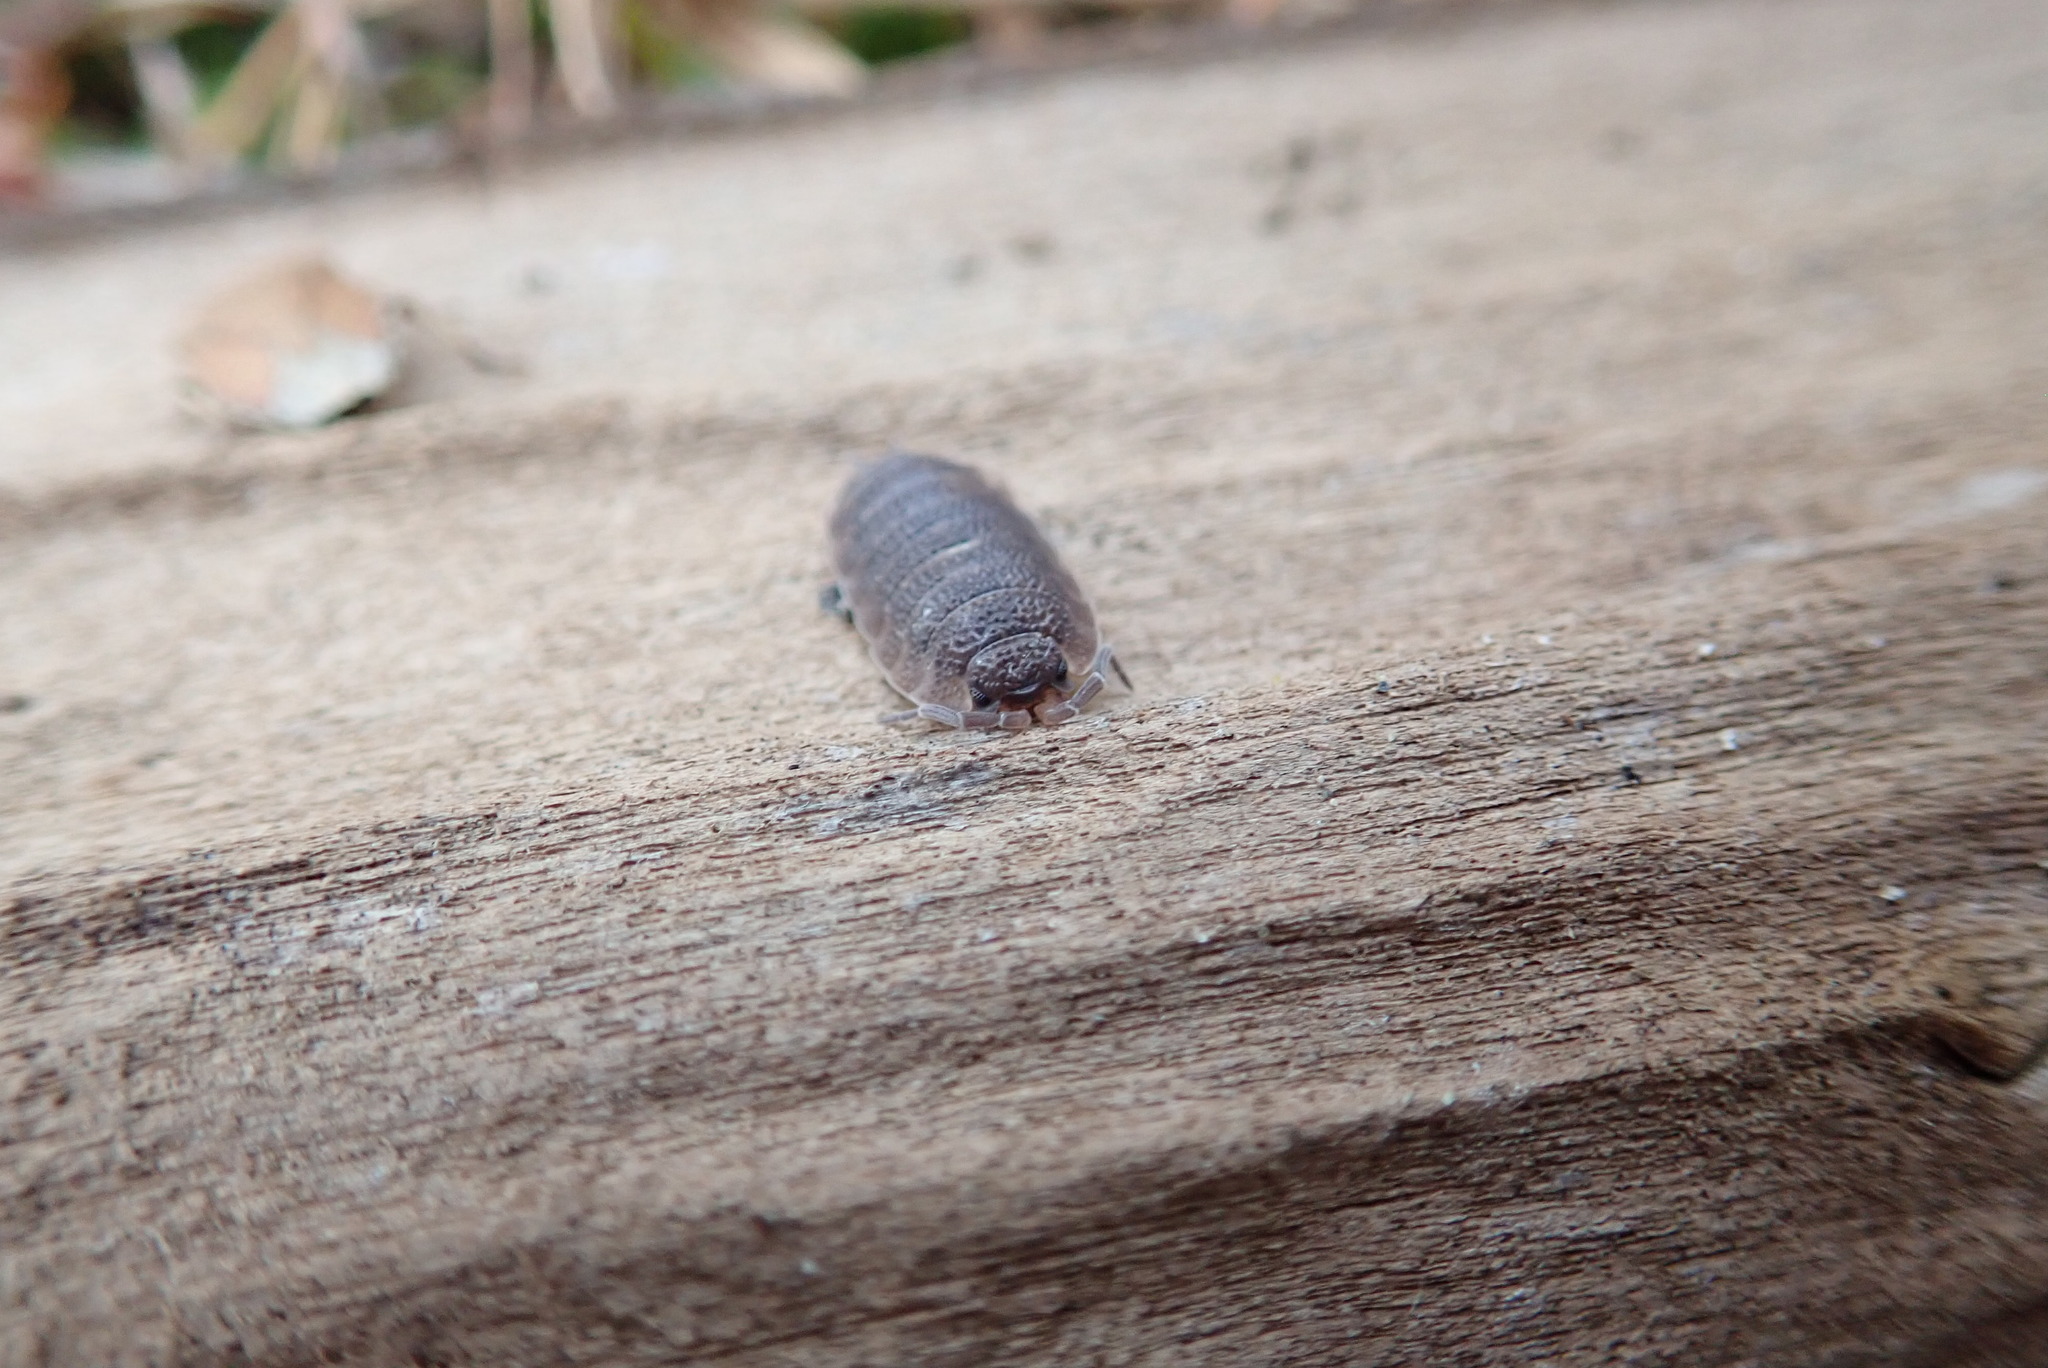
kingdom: Animalia
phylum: Arthropoda
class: Malacostraca
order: Isopoda
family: Porcellionidae
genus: Porcellio
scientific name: Porcellio scaber
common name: Common rough woodlouse
